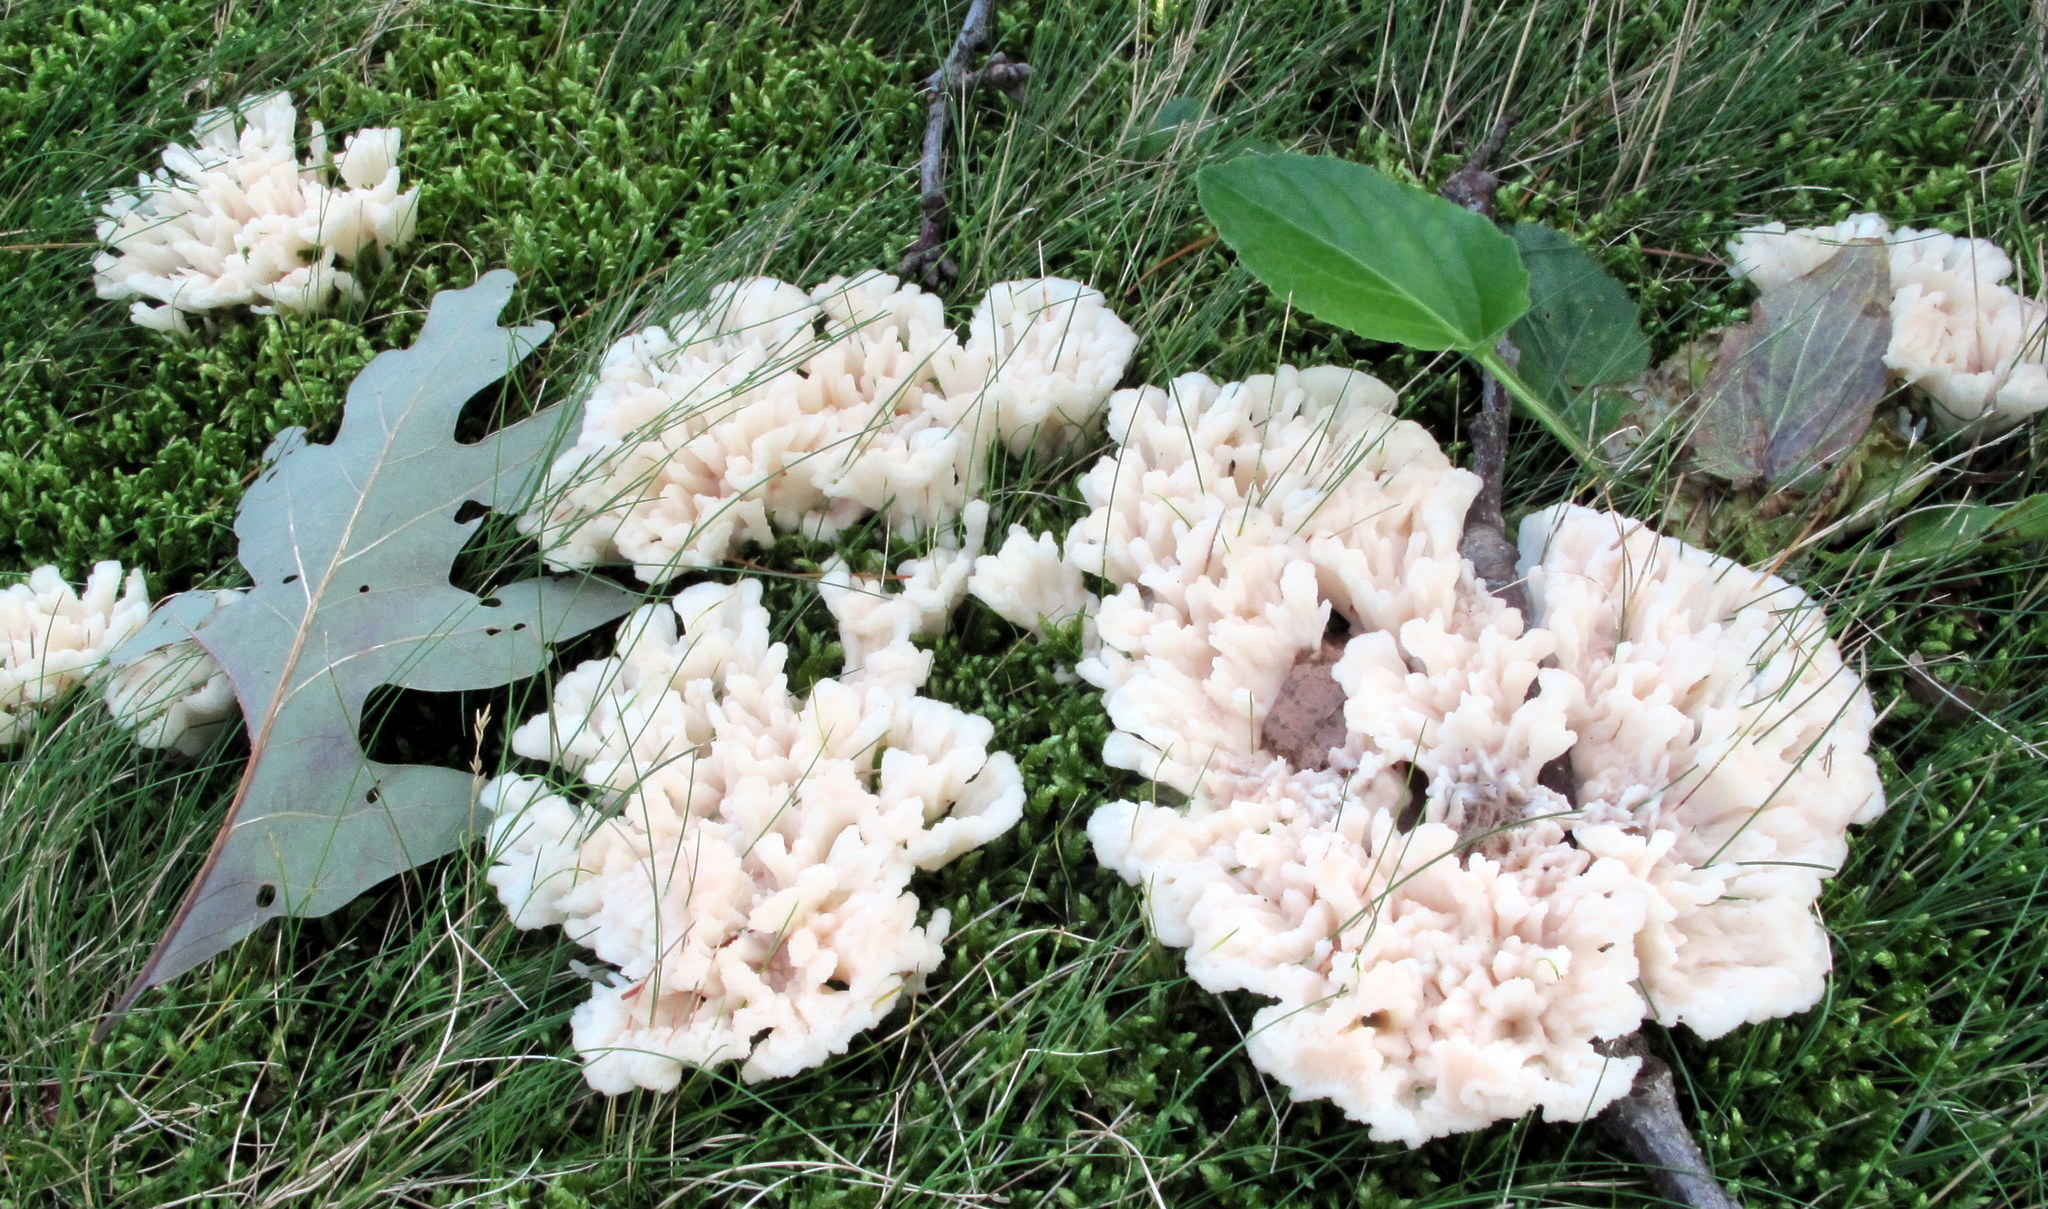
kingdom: Fungi
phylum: Basidiomycota
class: Agaricomycetes
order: Sebacinales
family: Sebacinaceae
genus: Sebacina
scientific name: Sebacina schweinitzii
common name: Jellied false coral fungus
